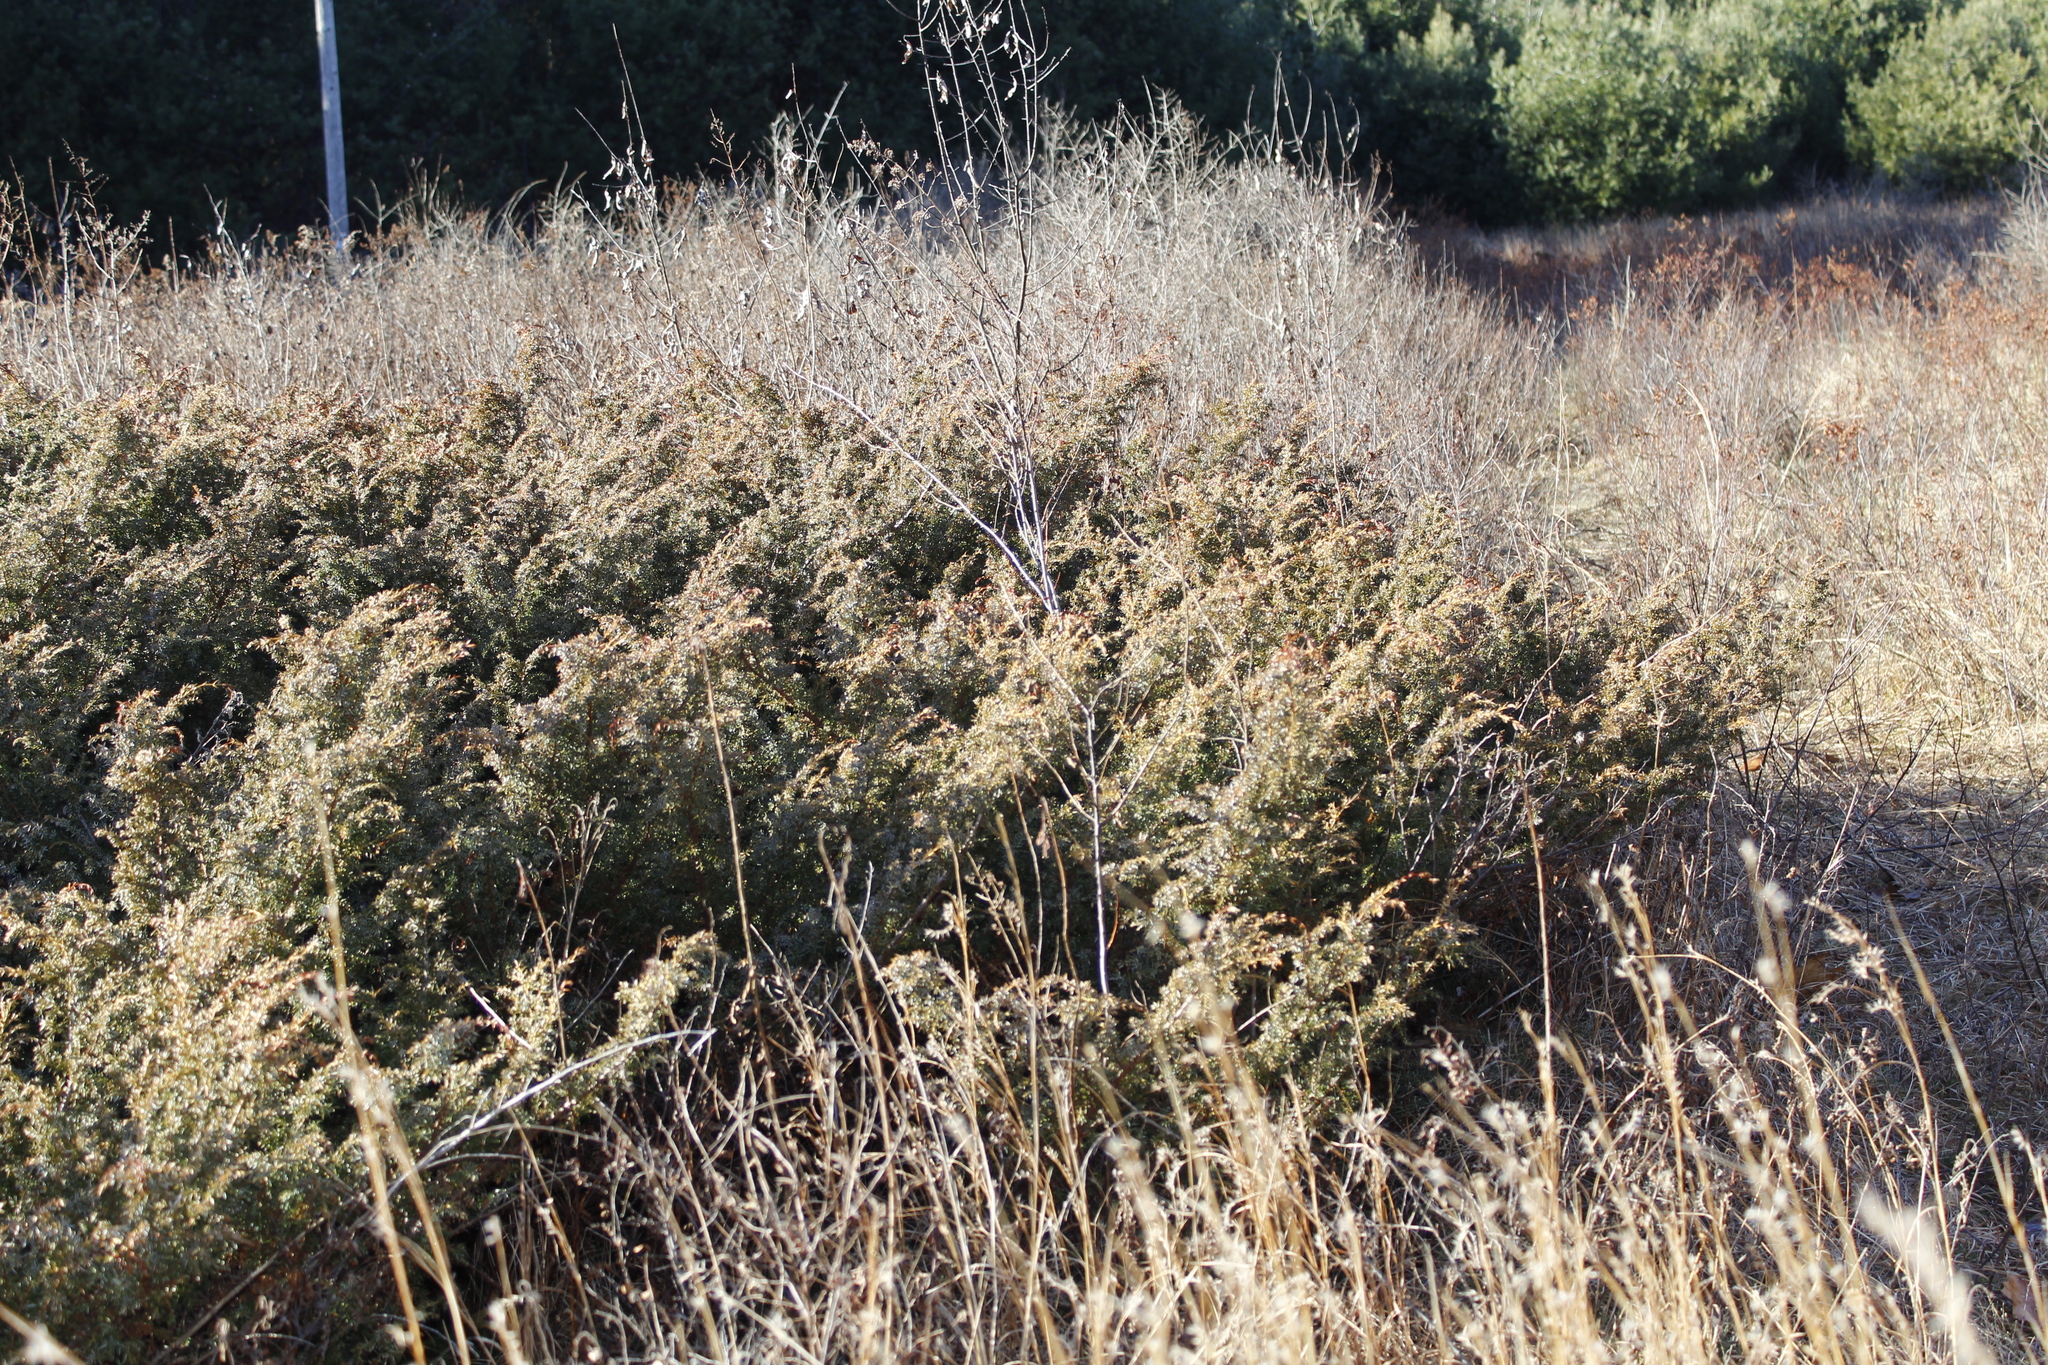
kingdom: Plantae
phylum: Tracheophyta
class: Pinopsida
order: Pinales
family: Cupressaceae
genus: Juniperus
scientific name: Juniperus communis
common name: Common juniper
